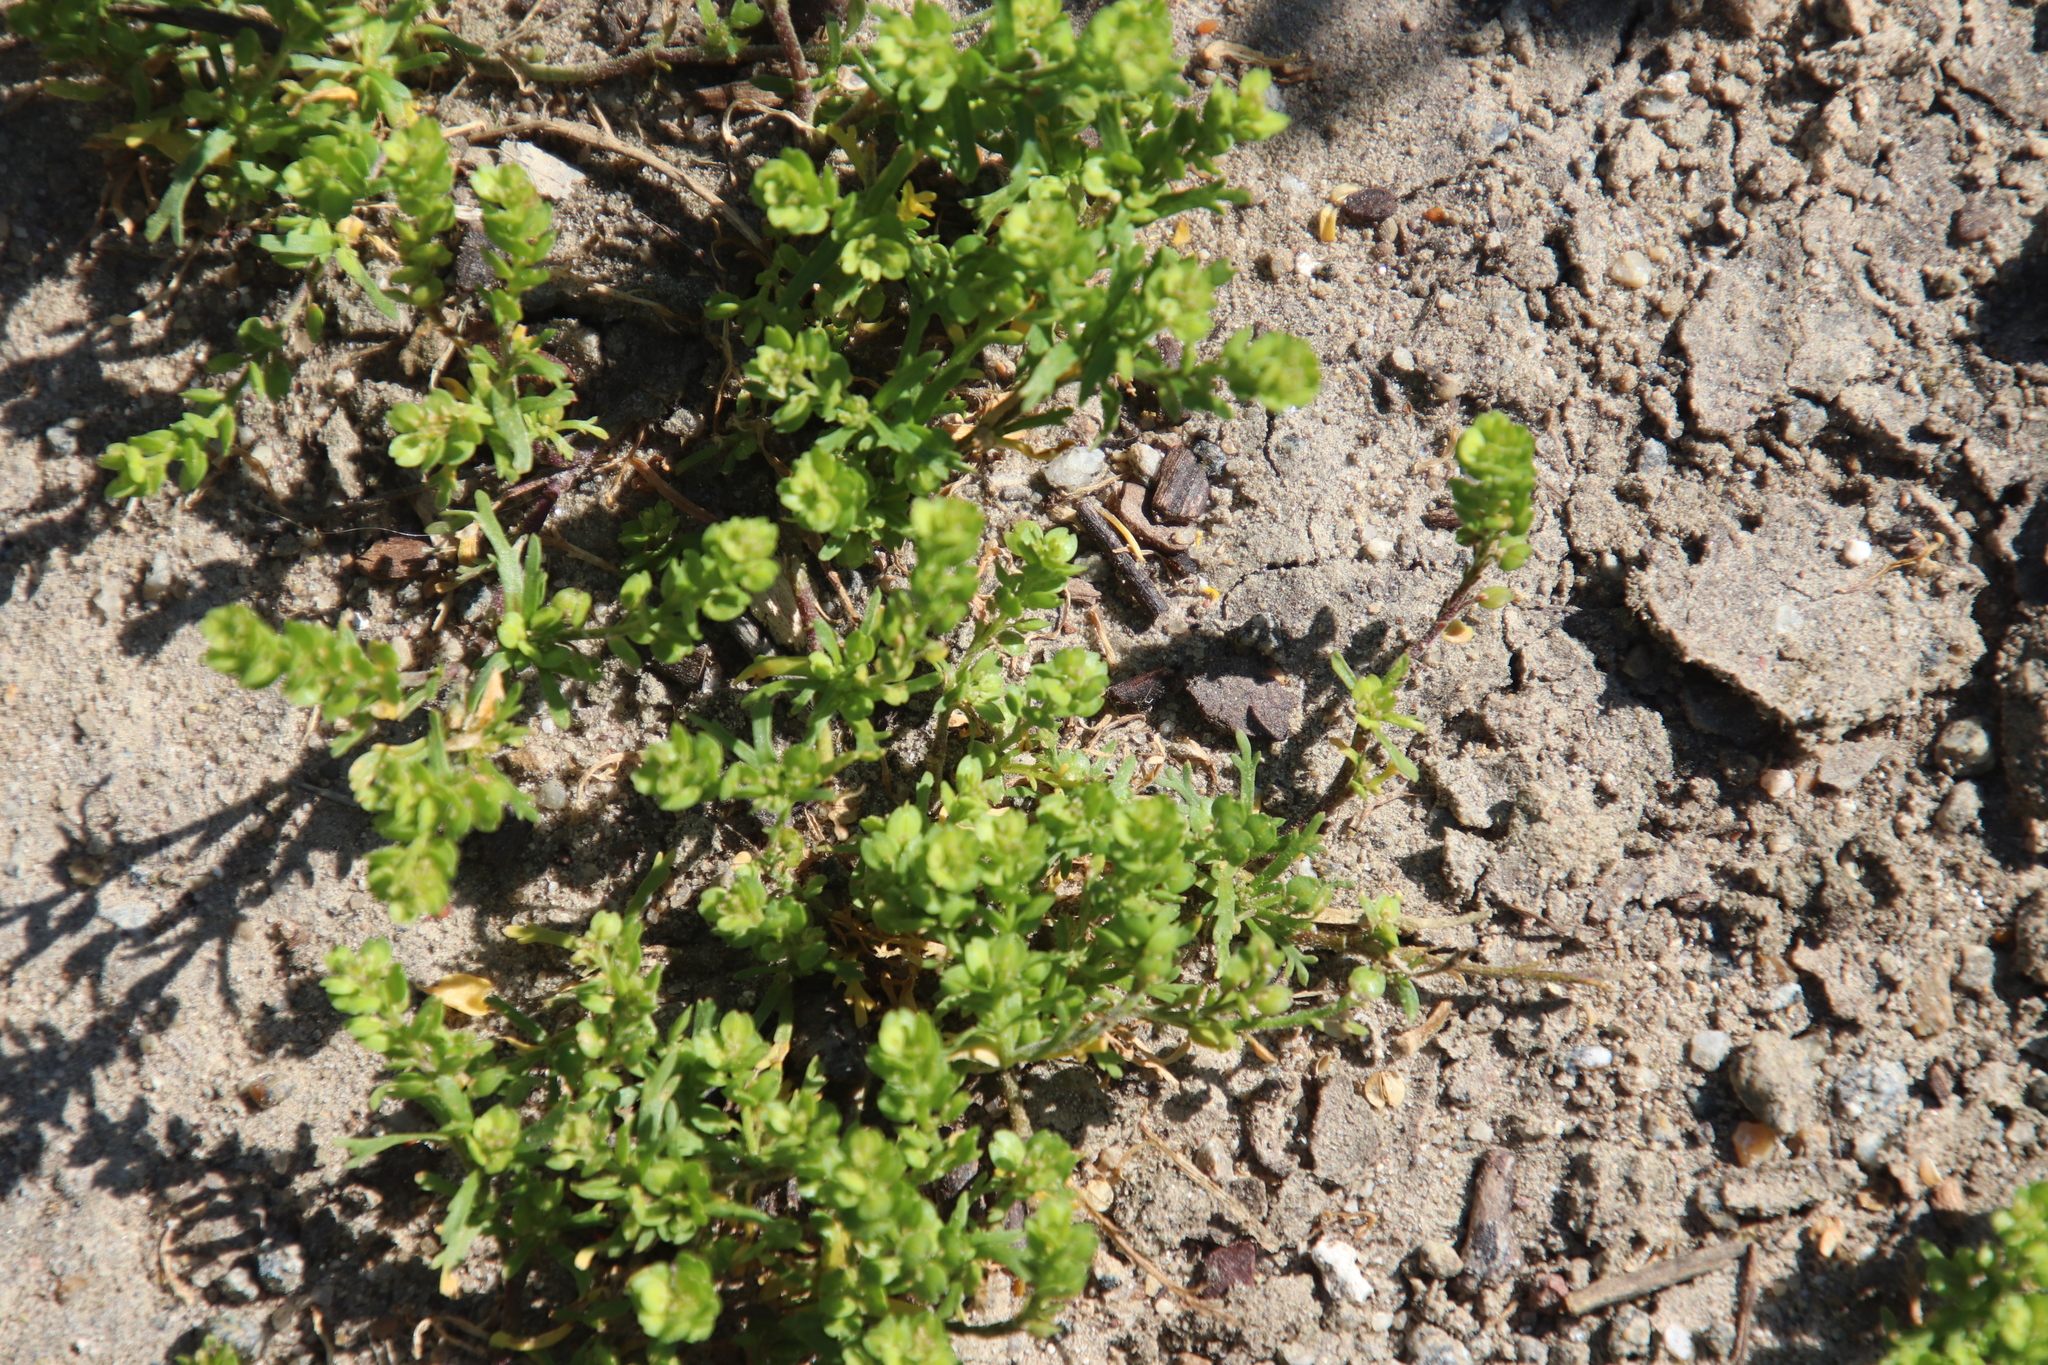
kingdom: Plantae
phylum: Tracheophyta
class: Magnoliopsida
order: Brassicales
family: Brassicaceae
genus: Lepidium
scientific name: Lepidium strictum
